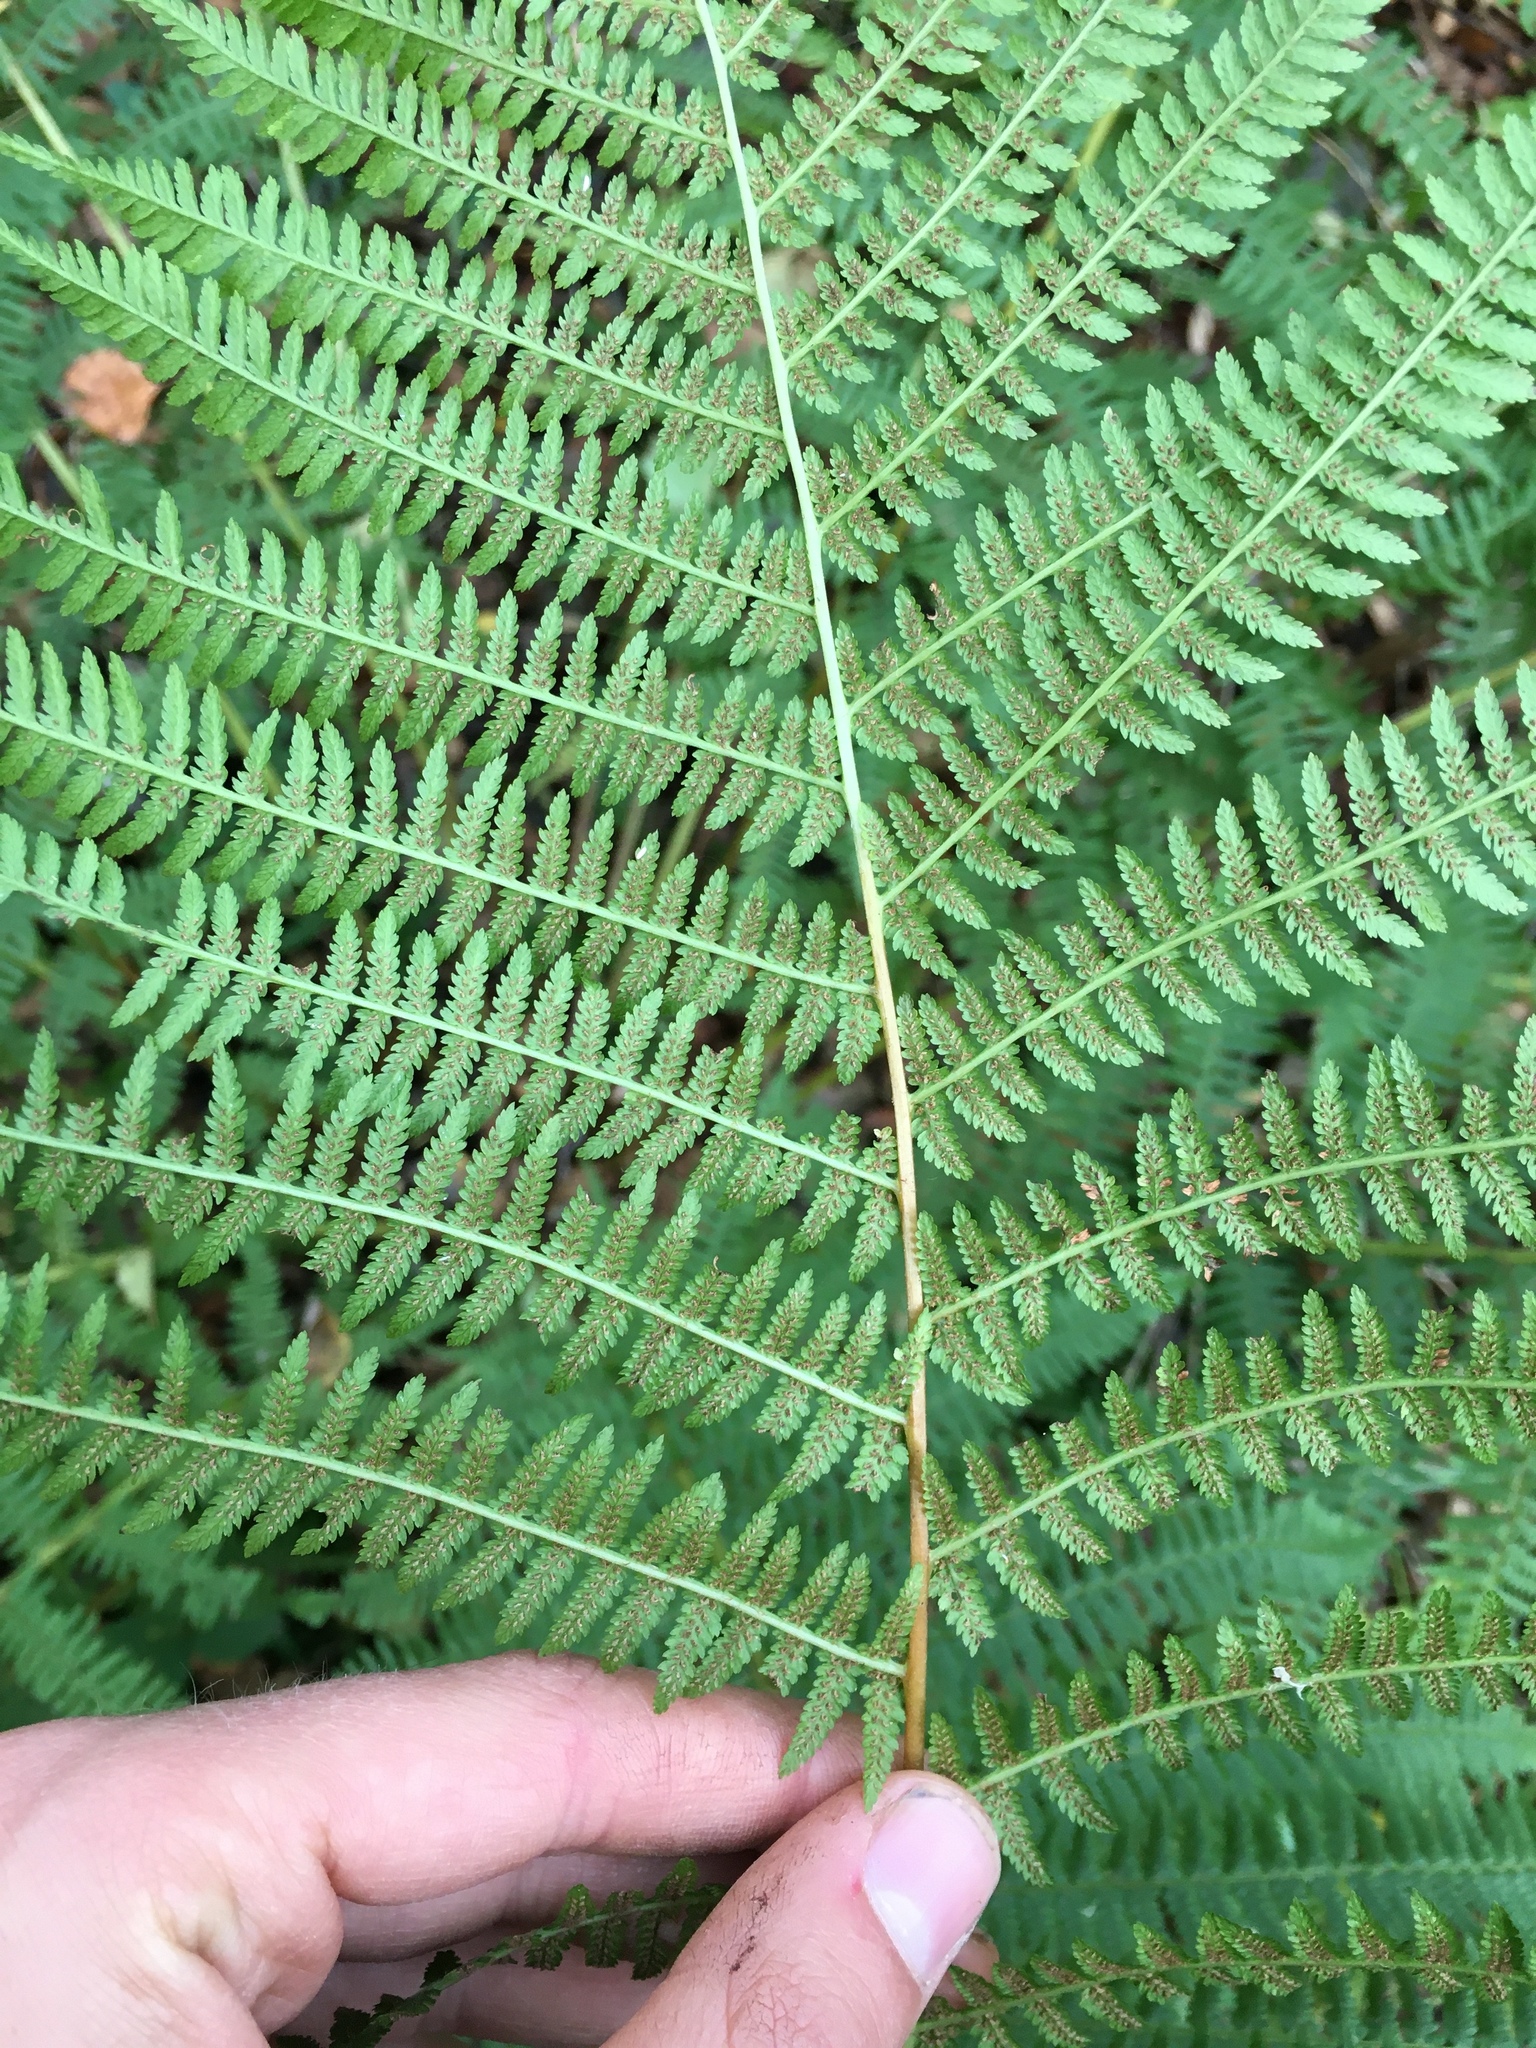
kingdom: Plantae
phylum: Tracheophyta
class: Polypodiopsida
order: Polypodiales
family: Athyriaceae
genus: Athyrium
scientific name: Athyrium filix-femina
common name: Lady fern
